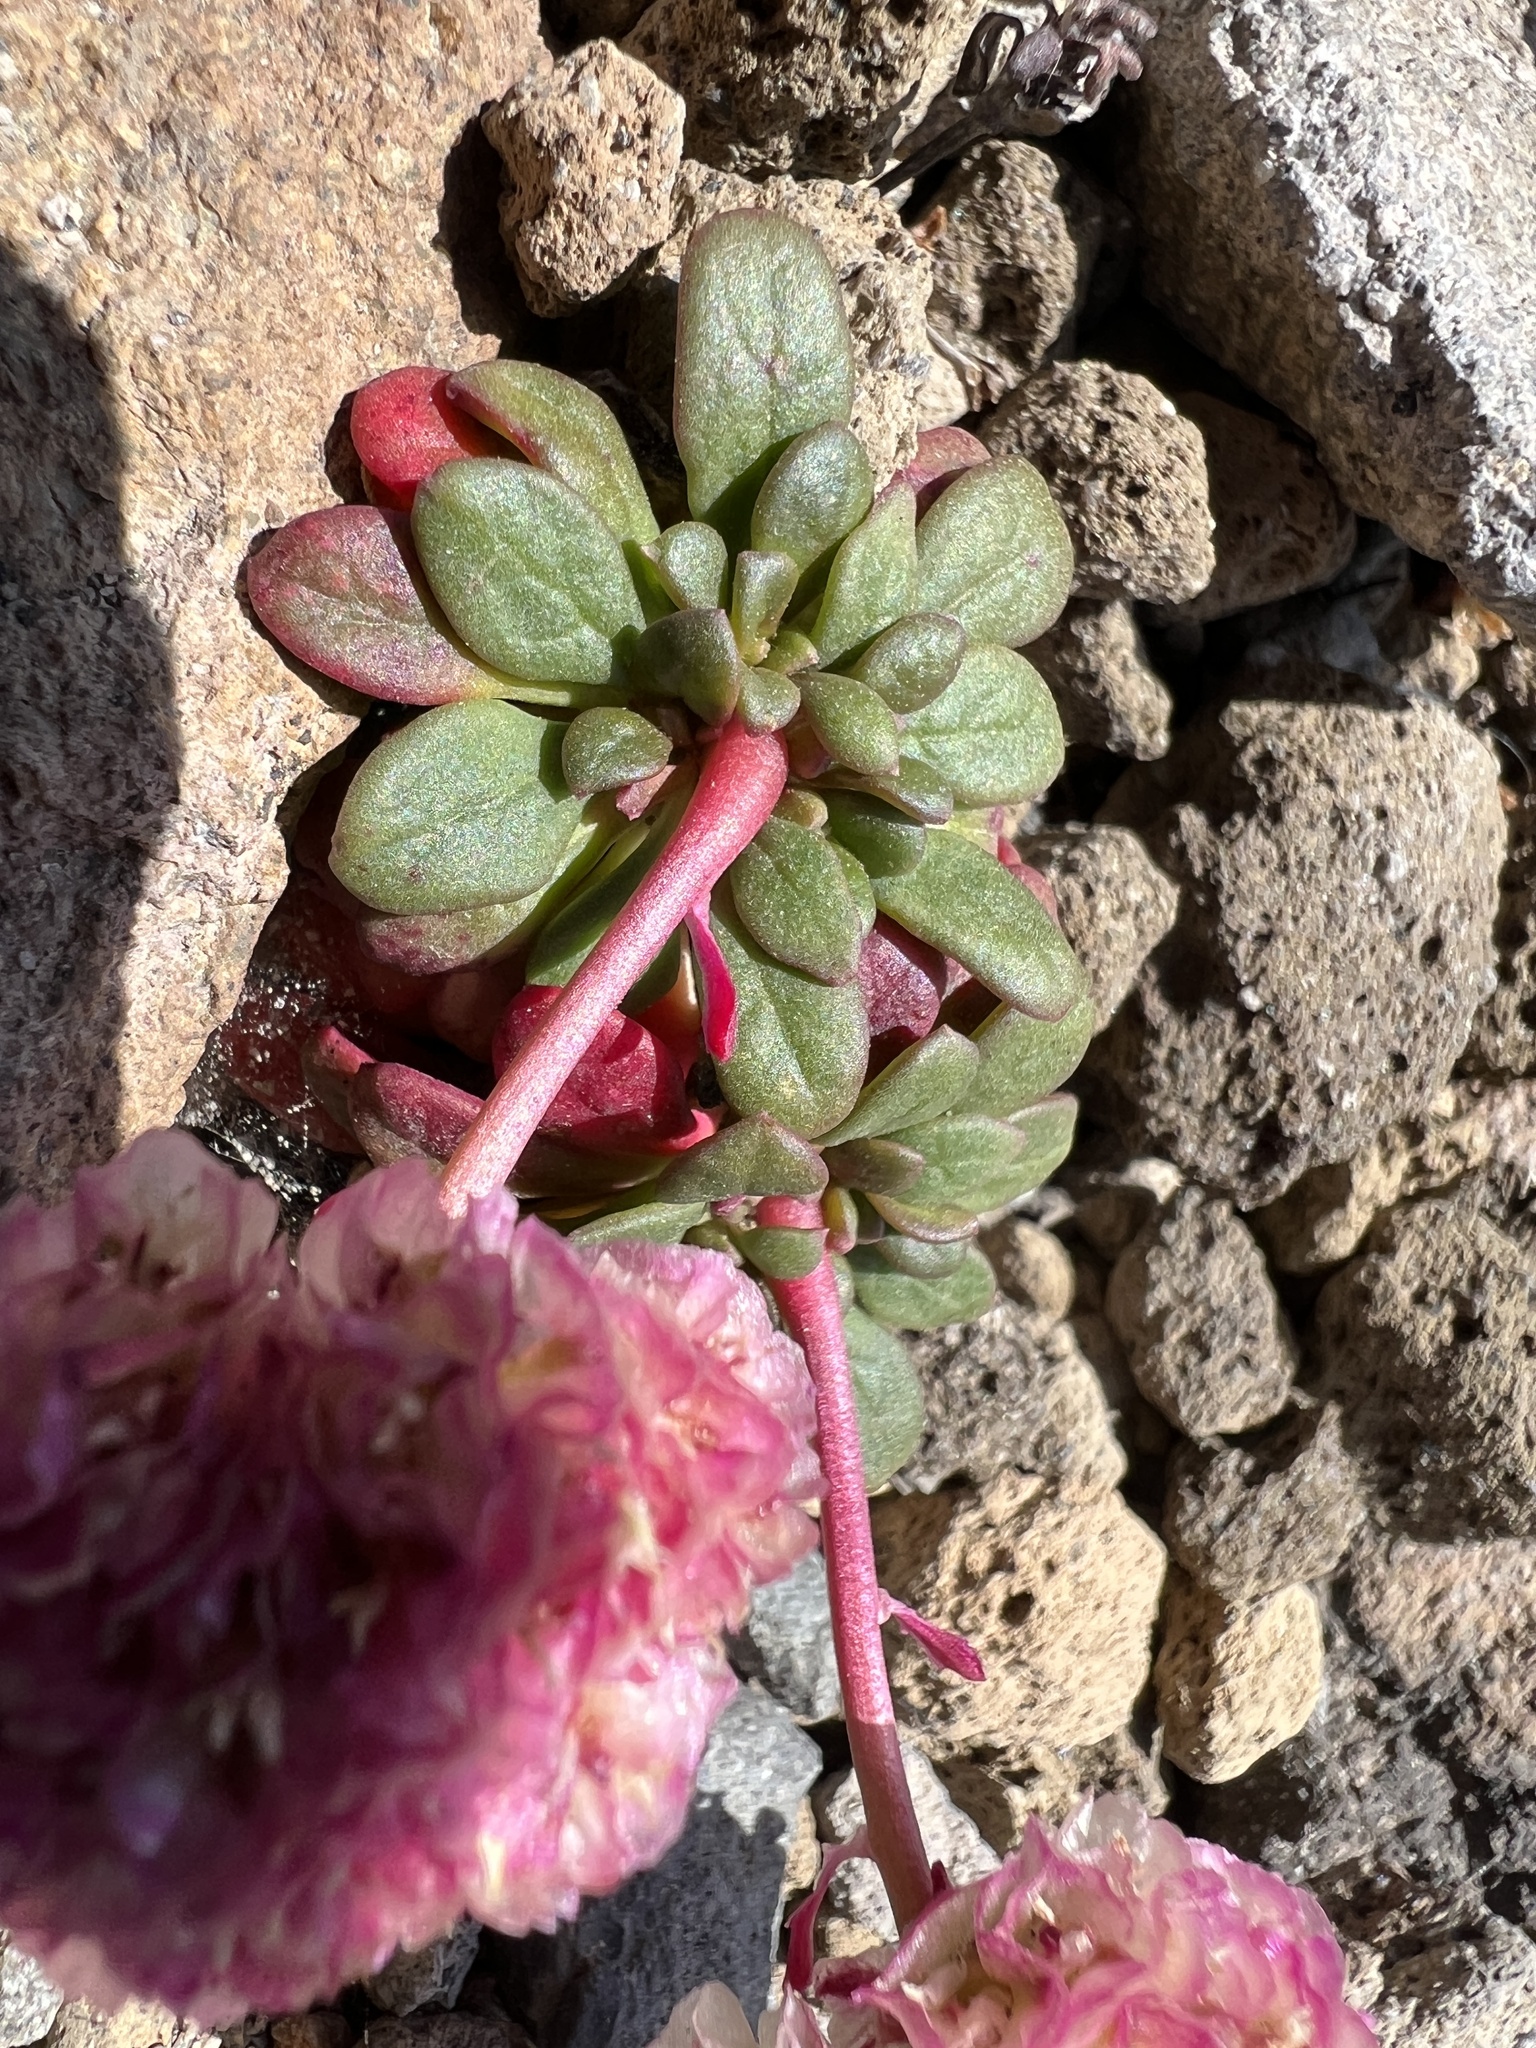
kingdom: Plantae
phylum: Tracheophyta
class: Magnoliopsida
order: Caryophyllales
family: Montiaceae
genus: Calyptridium
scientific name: Calyptridium umbellatum
